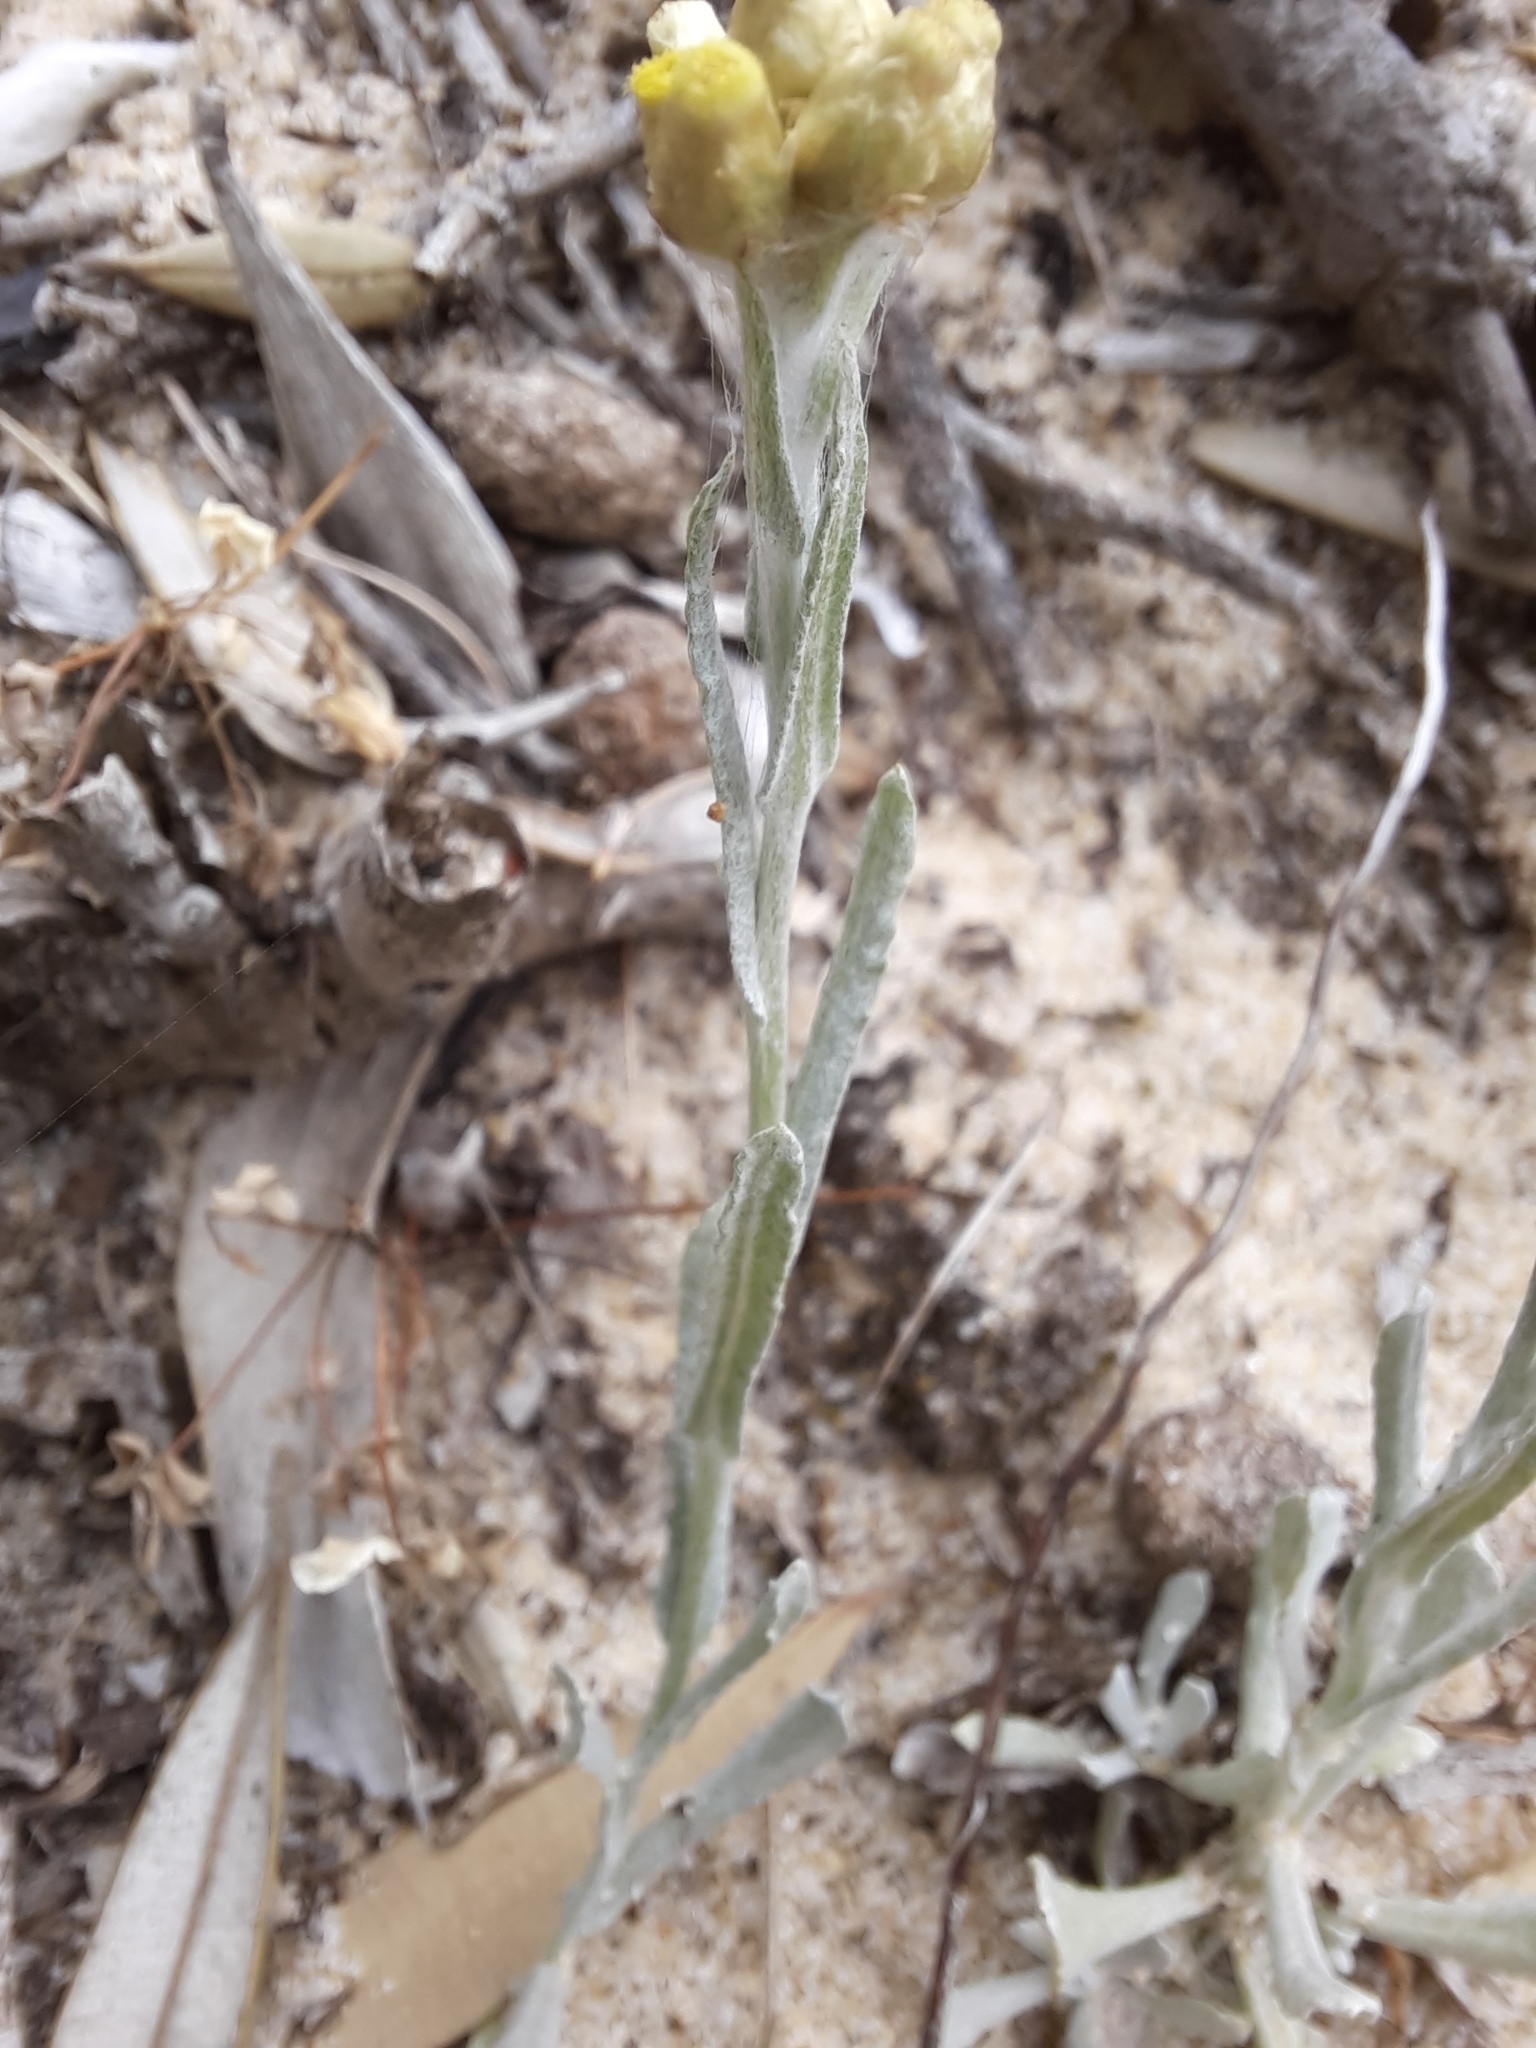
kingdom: Plantae
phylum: Tracheophyta
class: Magnoliopsida
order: Asterales
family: Asteraceae
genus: Helichrysum
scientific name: Helichrysum luteoalbum
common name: Daisy
